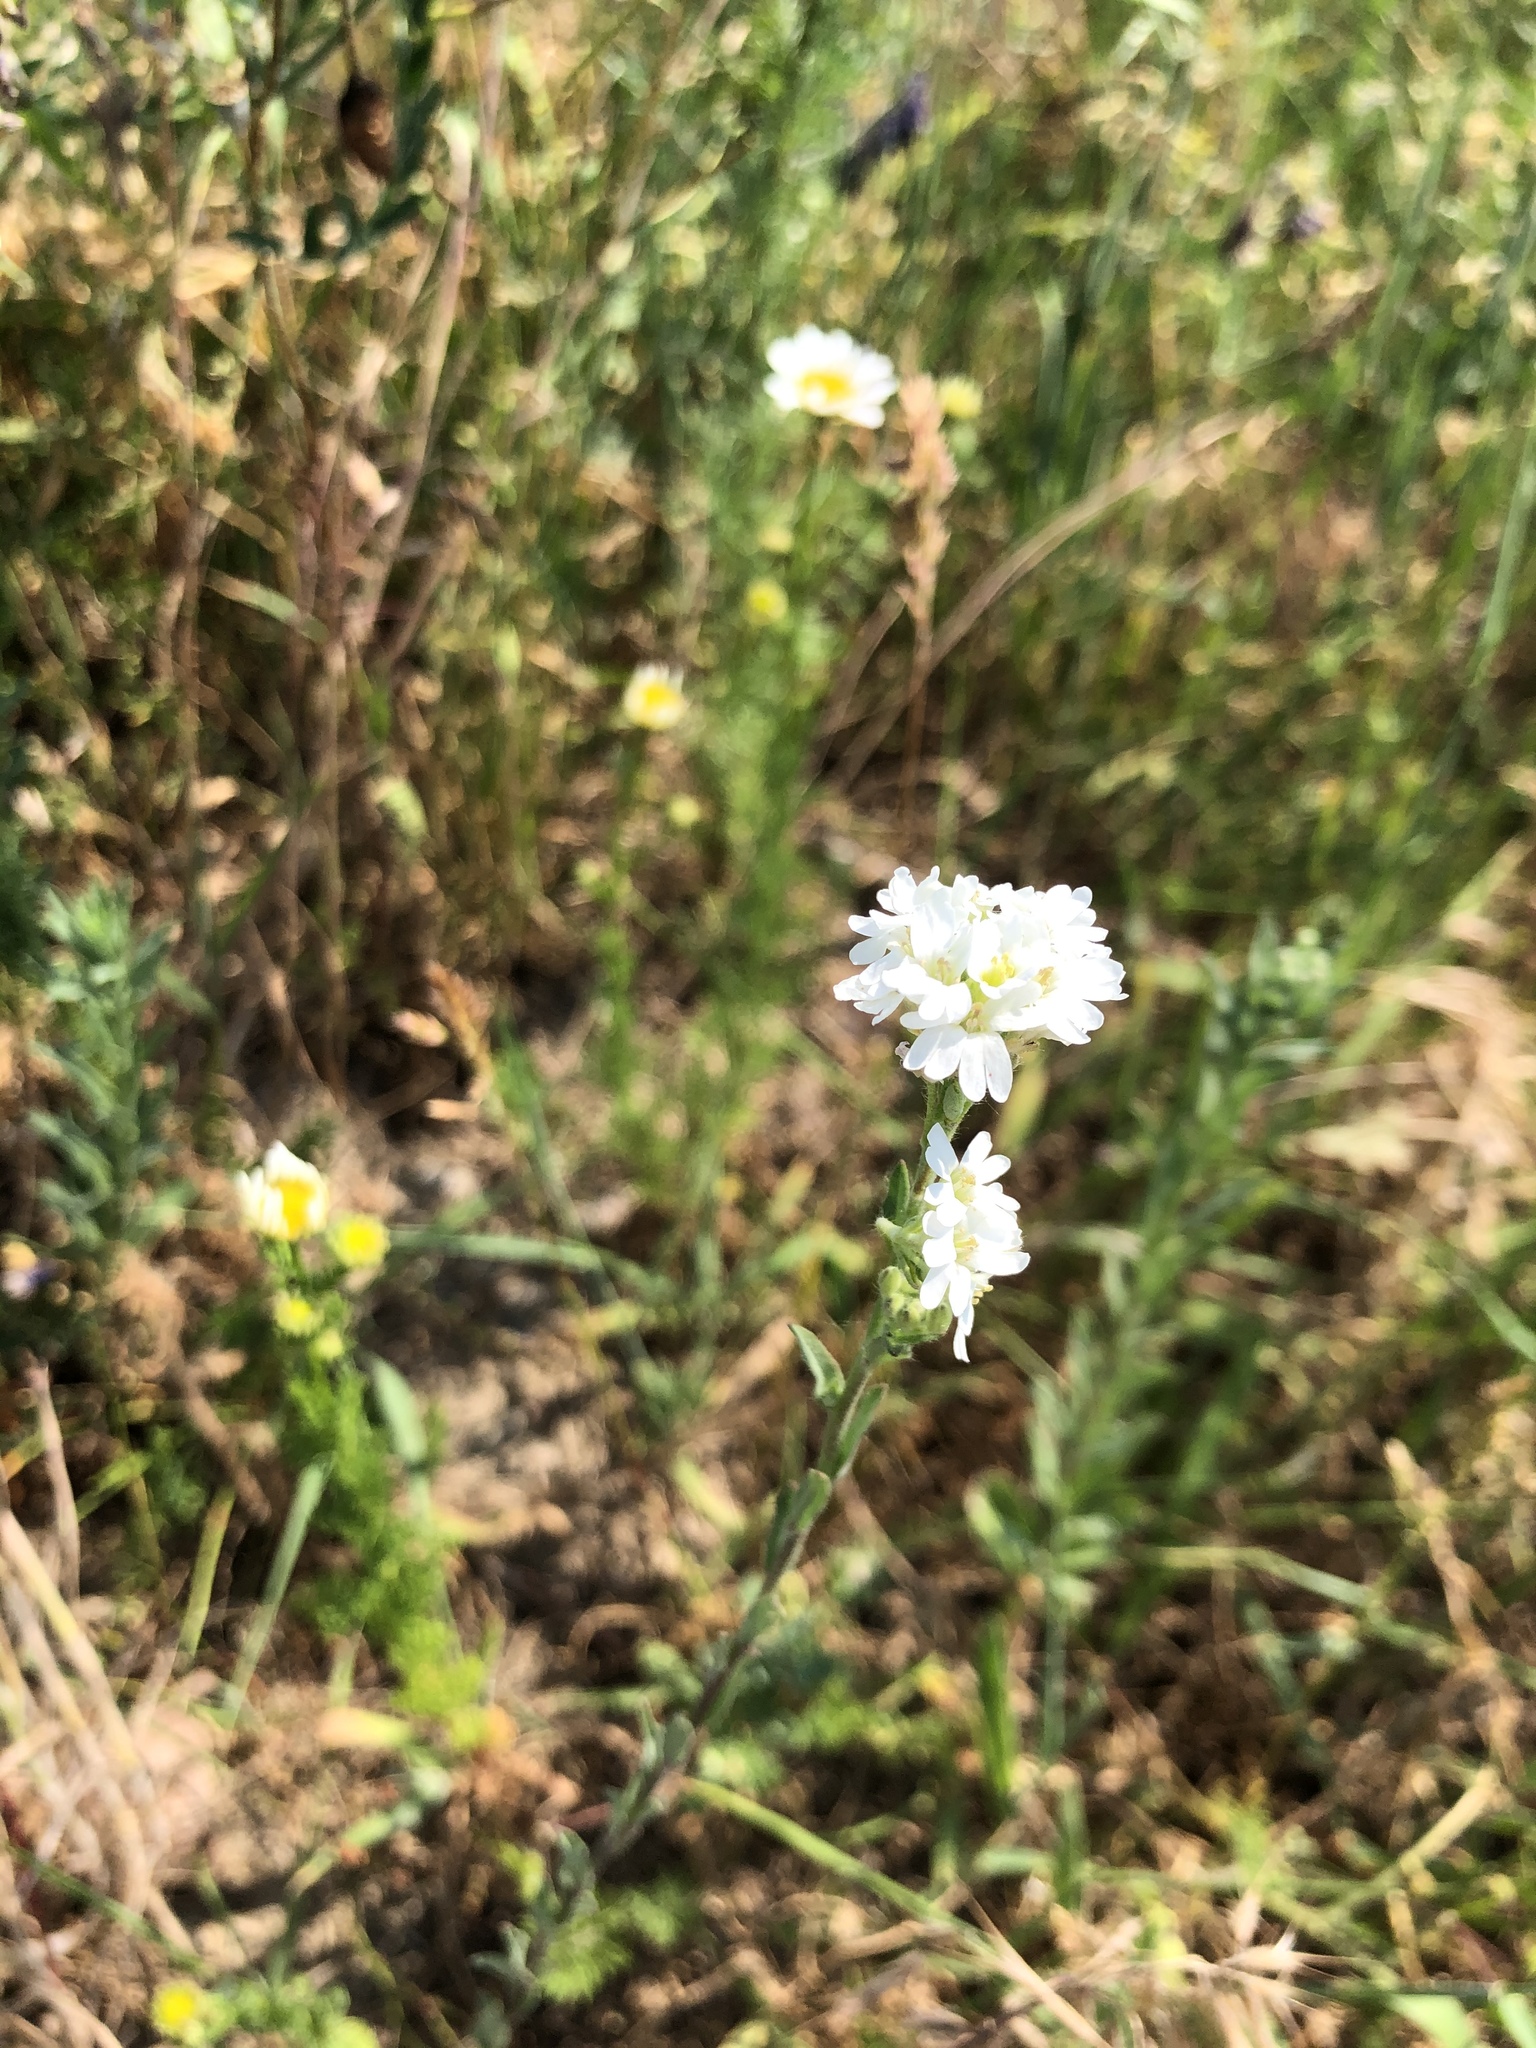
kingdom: Plantae
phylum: Tracheophyta
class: Magnoliopsida
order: Brassicales
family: Brassicaceae
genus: Berteroa
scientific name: Berteroa incana
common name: Hoary alison
